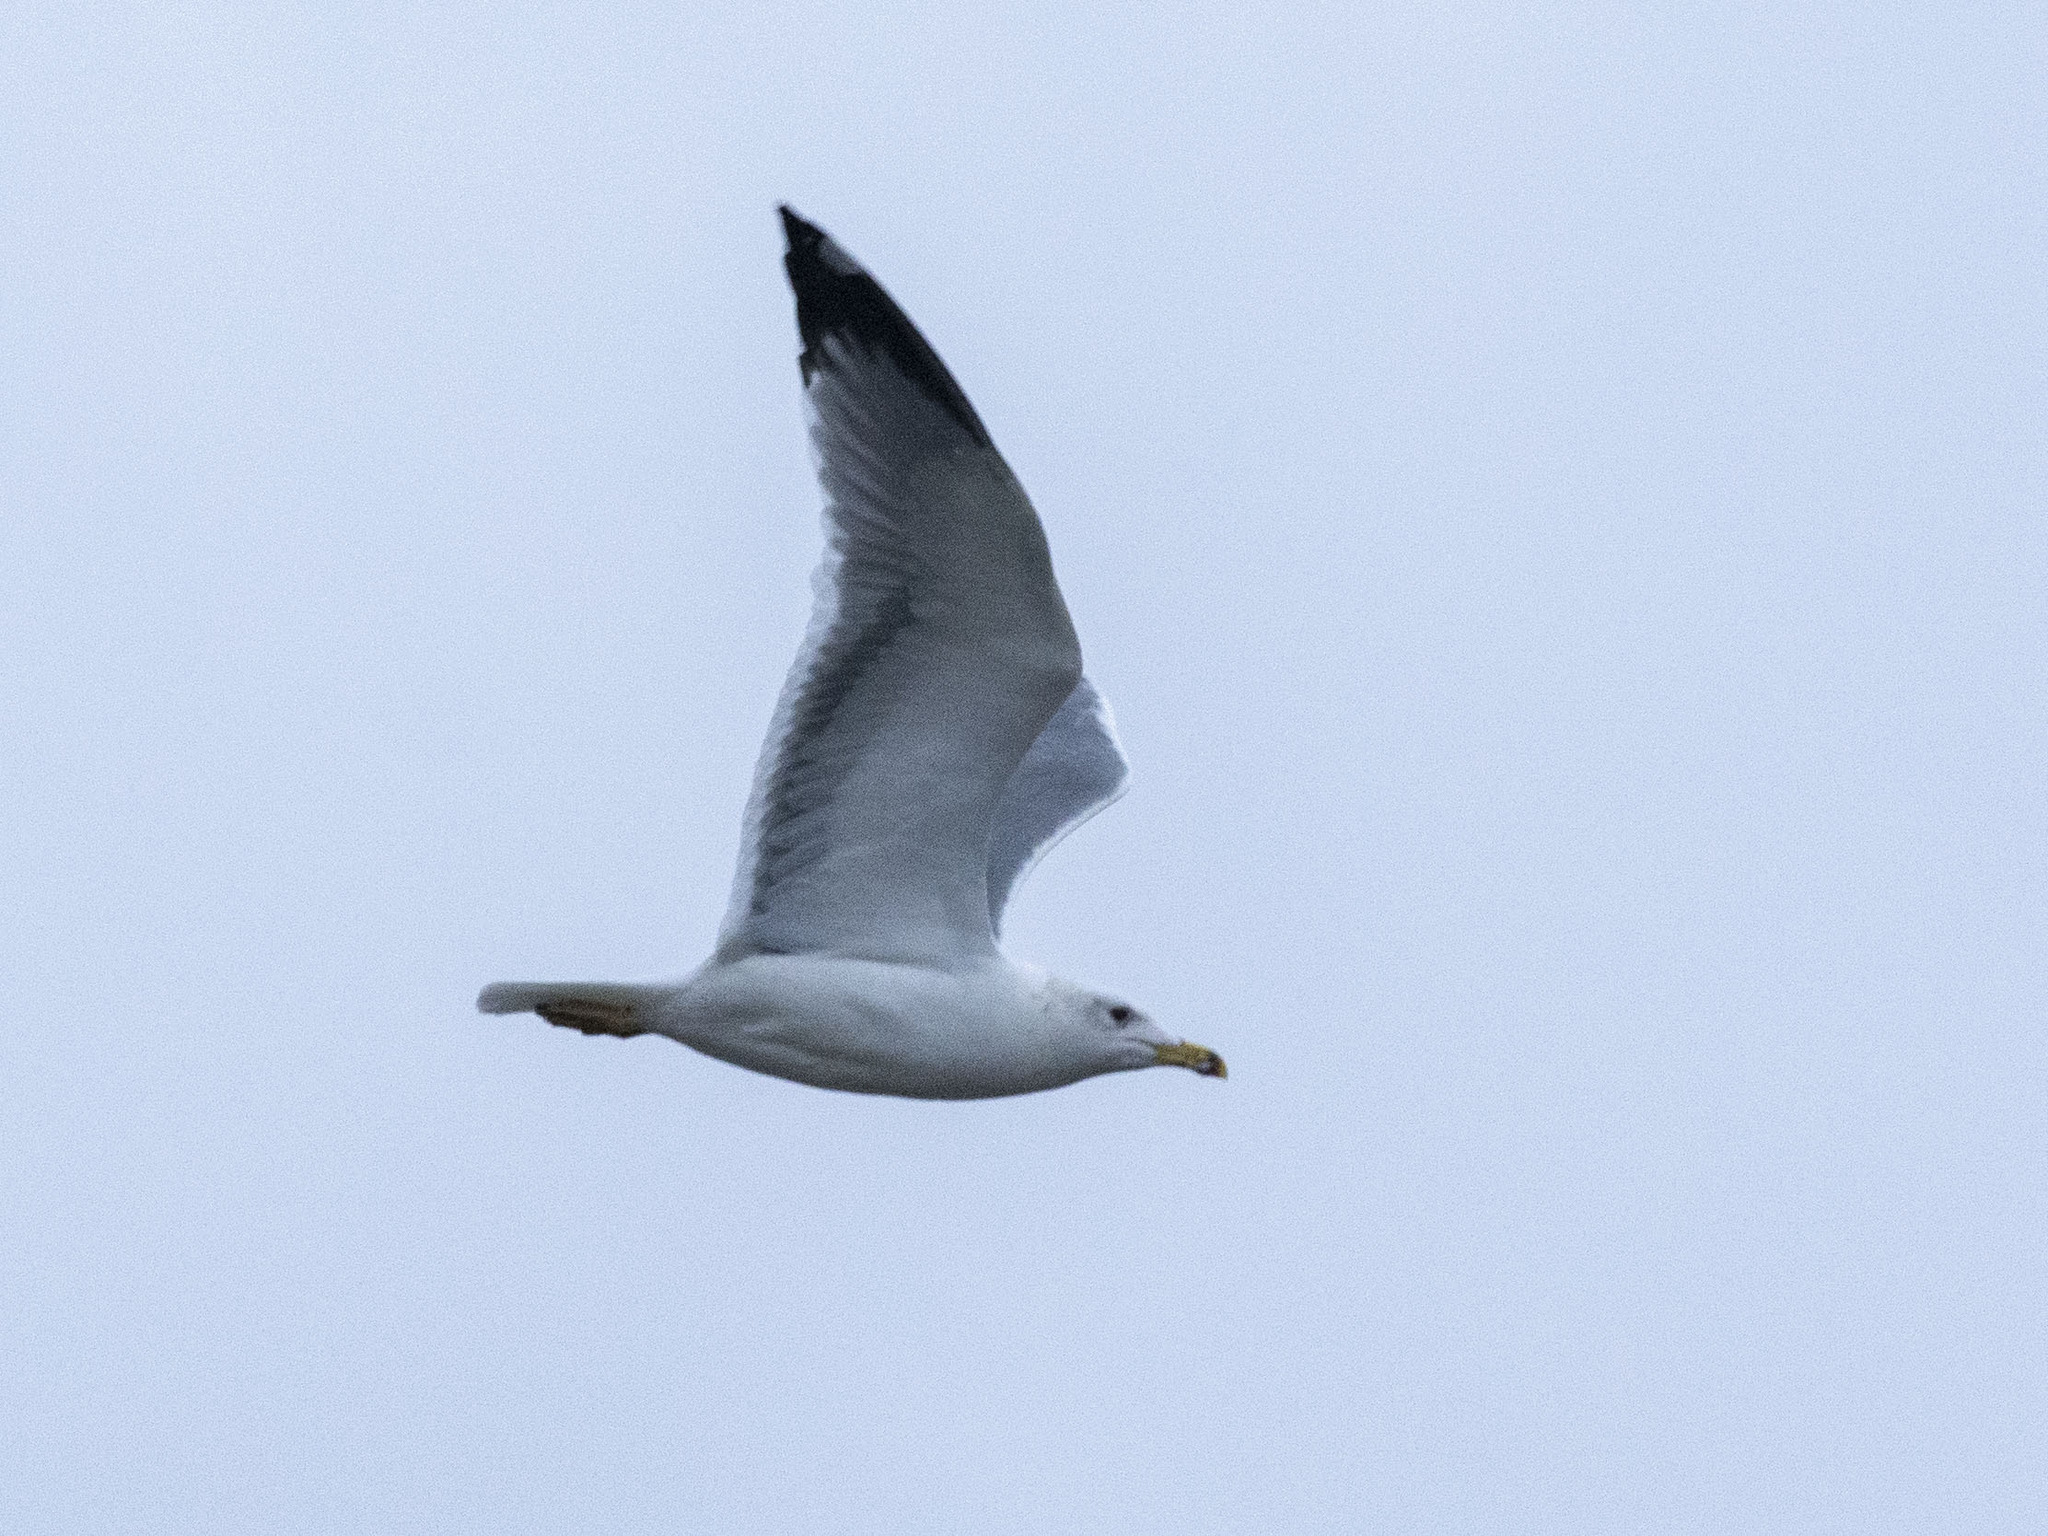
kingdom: Animalia
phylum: Chordata
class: Aves
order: Charadriiformes
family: Laridae
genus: Larus
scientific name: Larus armenicus
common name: Armenian gull
